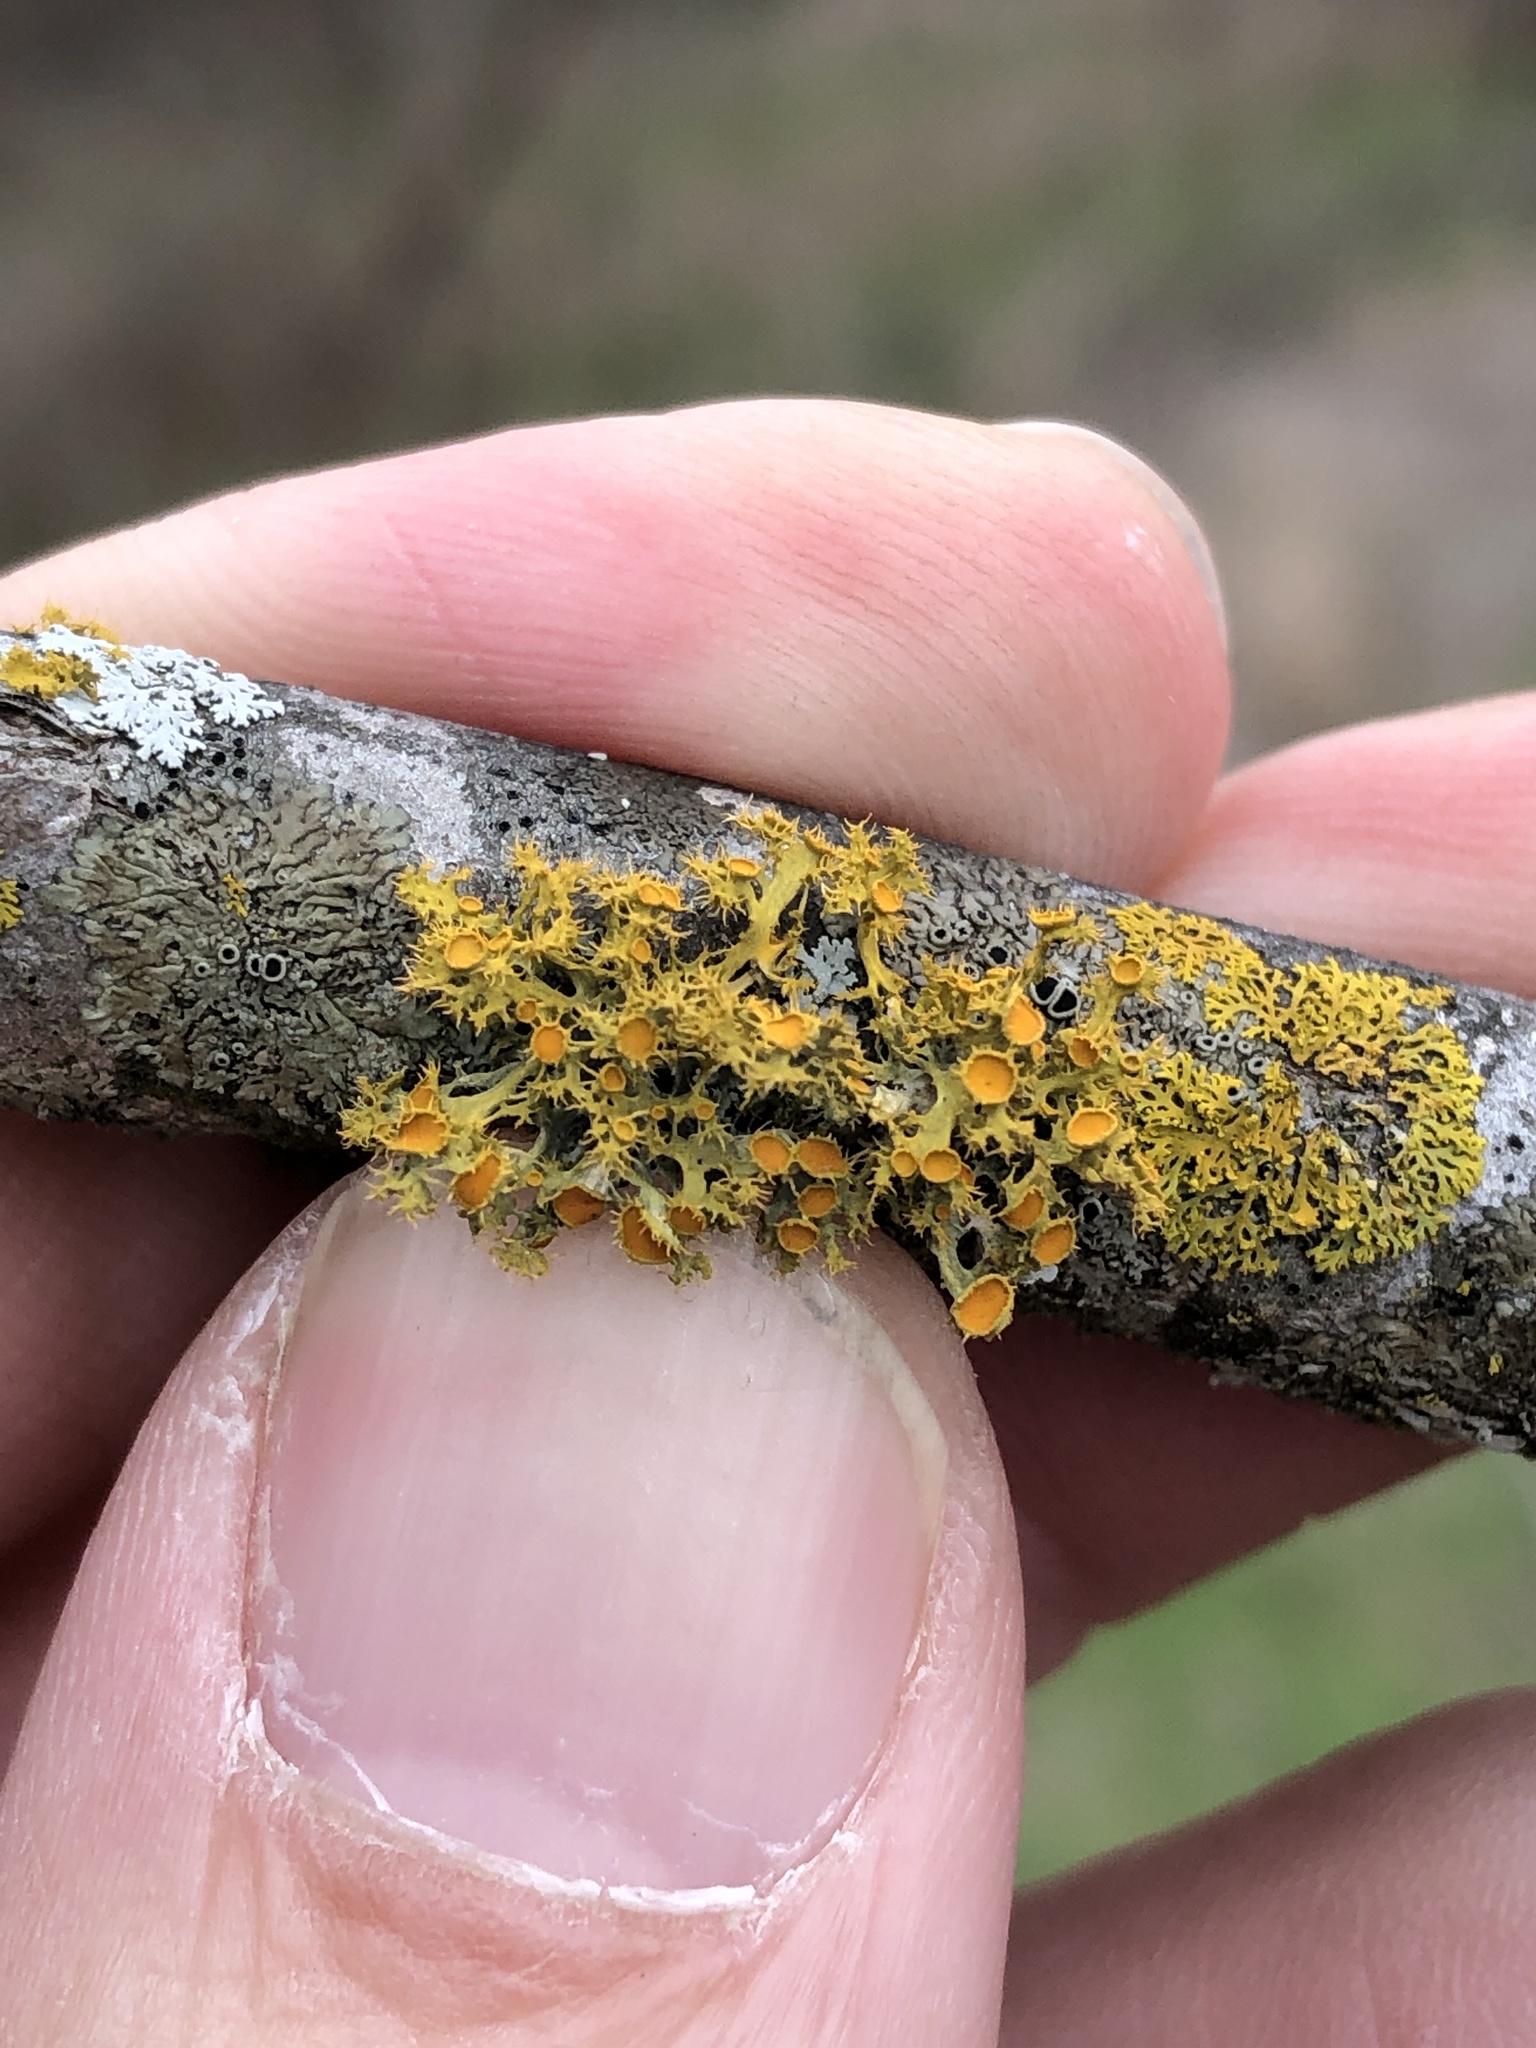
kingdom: Fungi
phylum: Ascomycota
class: Lecanoromycetes
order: Teloschistales
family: Teloschistaceae
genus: Niorma
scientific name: Niorma chrysophthalma
